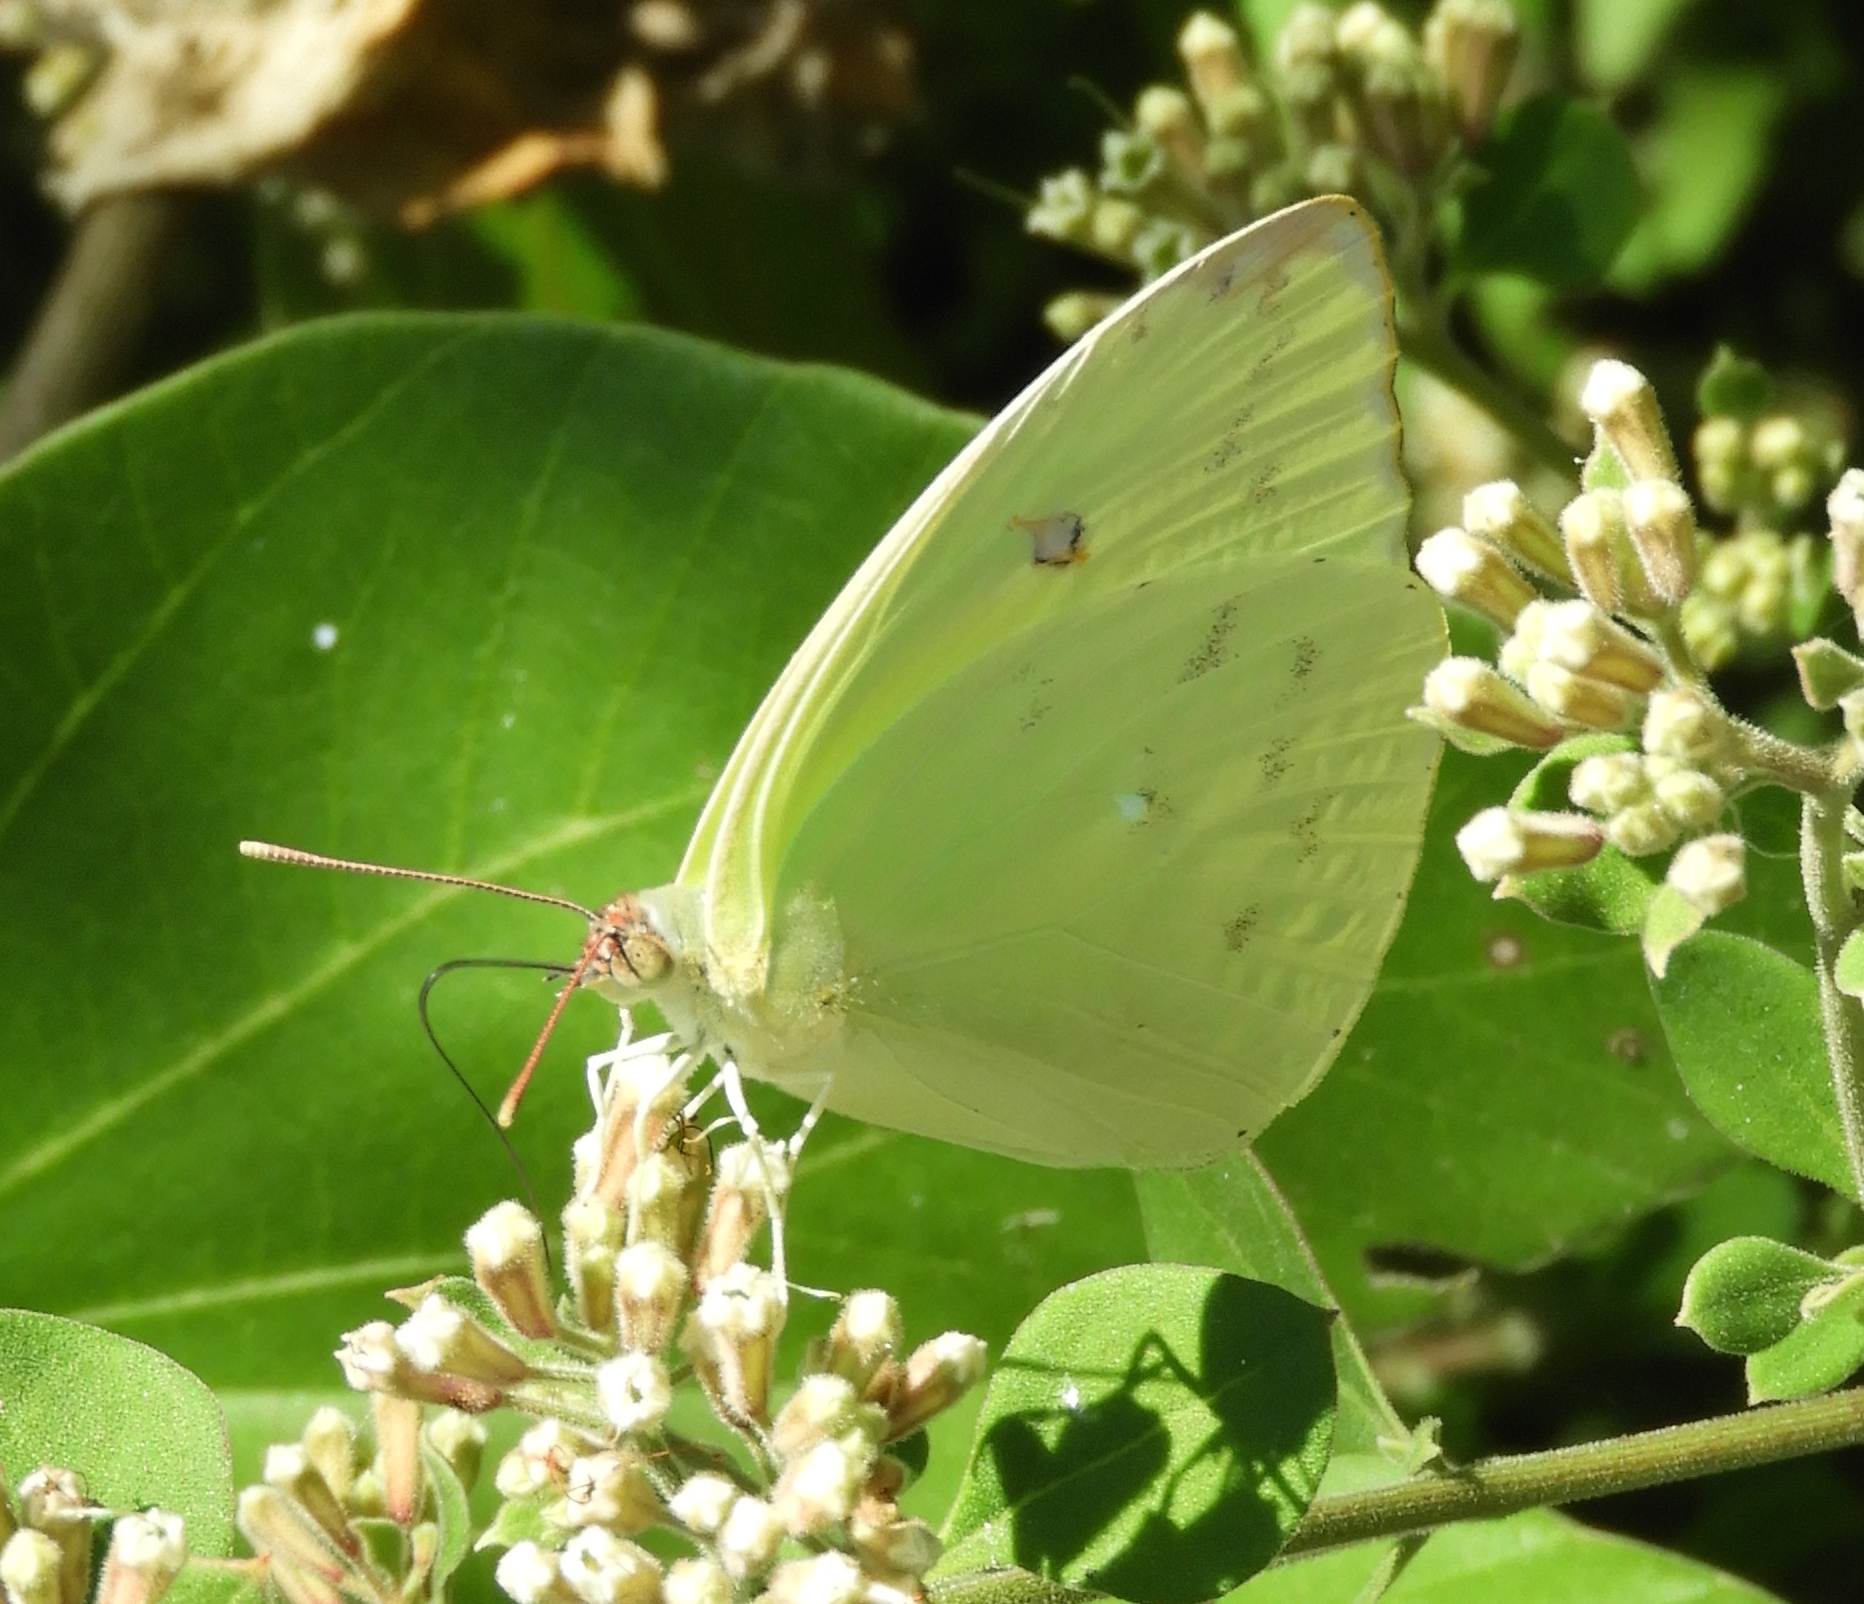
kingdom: Animalia
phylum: Arthropoda
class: Insecta
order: Lepidoptera
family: Pieridae
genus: Aphrissa
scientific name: Aphrissa statira
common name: Statira sulphur
